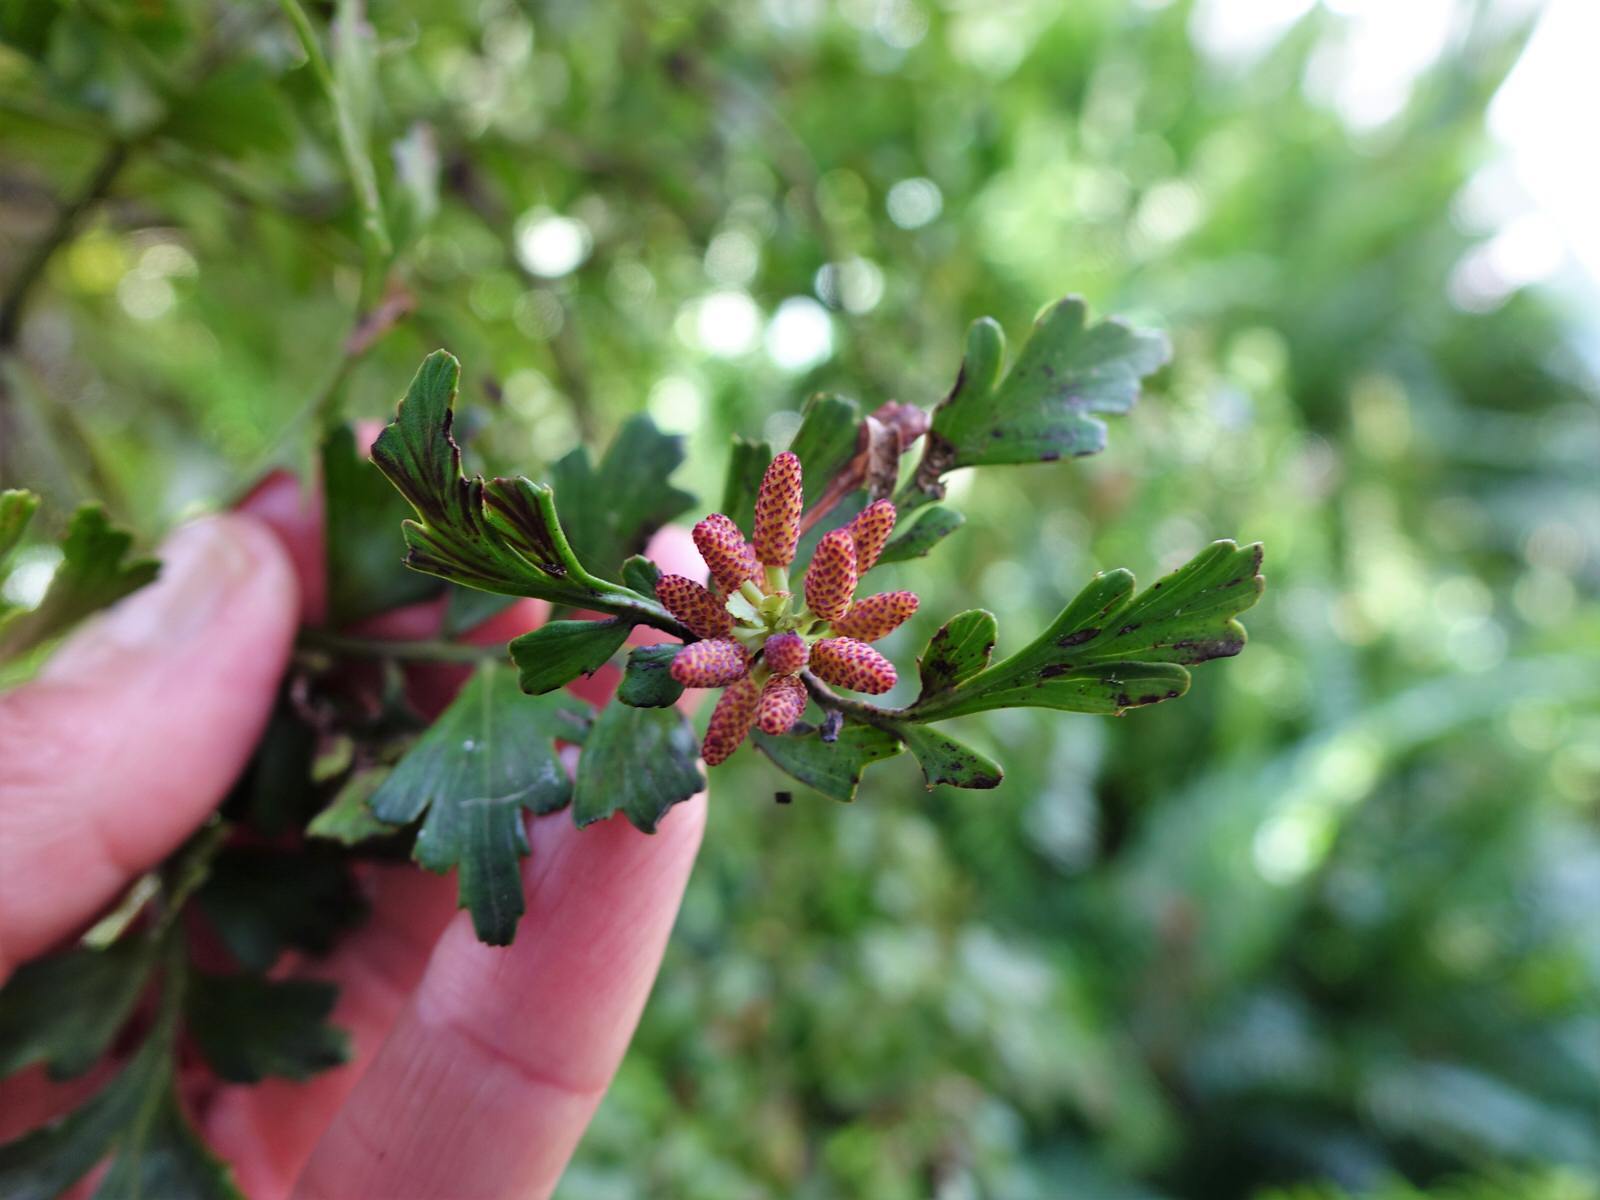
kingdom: Plantae
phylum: Tracheophyta
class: Pinopsida
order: Pinales
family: Phyllocladaceae
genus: Phyllocladus
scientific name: Phyllocladus trichomanoides
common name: Celery pine
